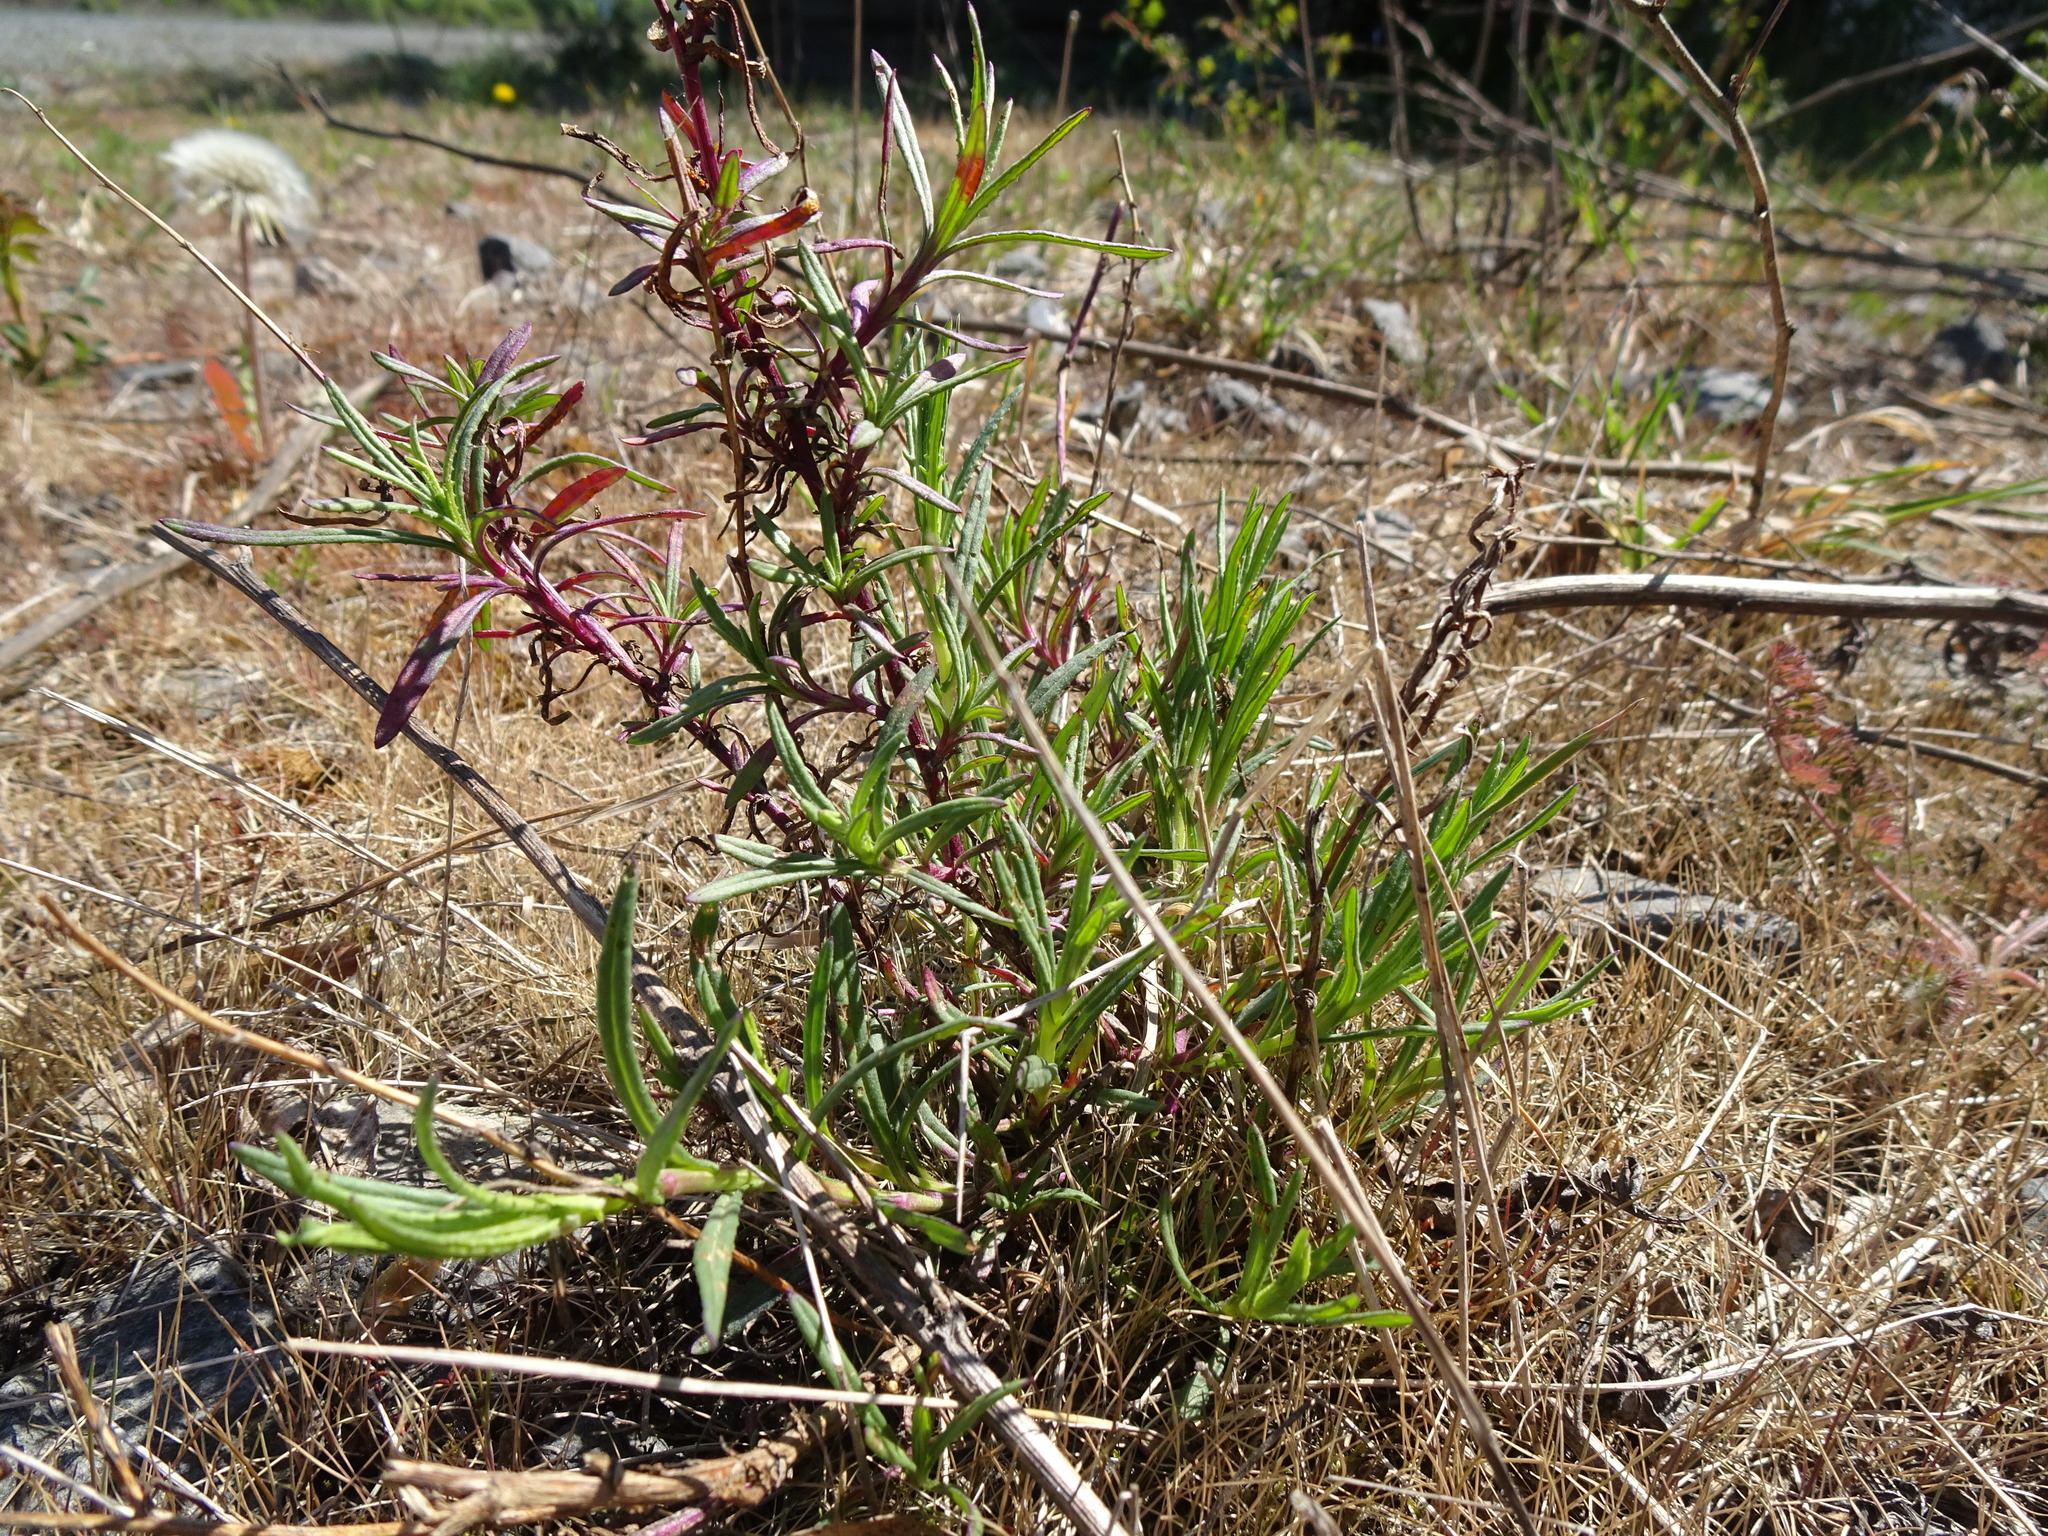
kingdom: Plantae
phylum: Tracheophyta
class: Magnoliopsida
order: Asterales
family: Asteraceae
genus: Senecio
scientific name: Senecio inaequidens
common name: Narrow-leaved ragwort
